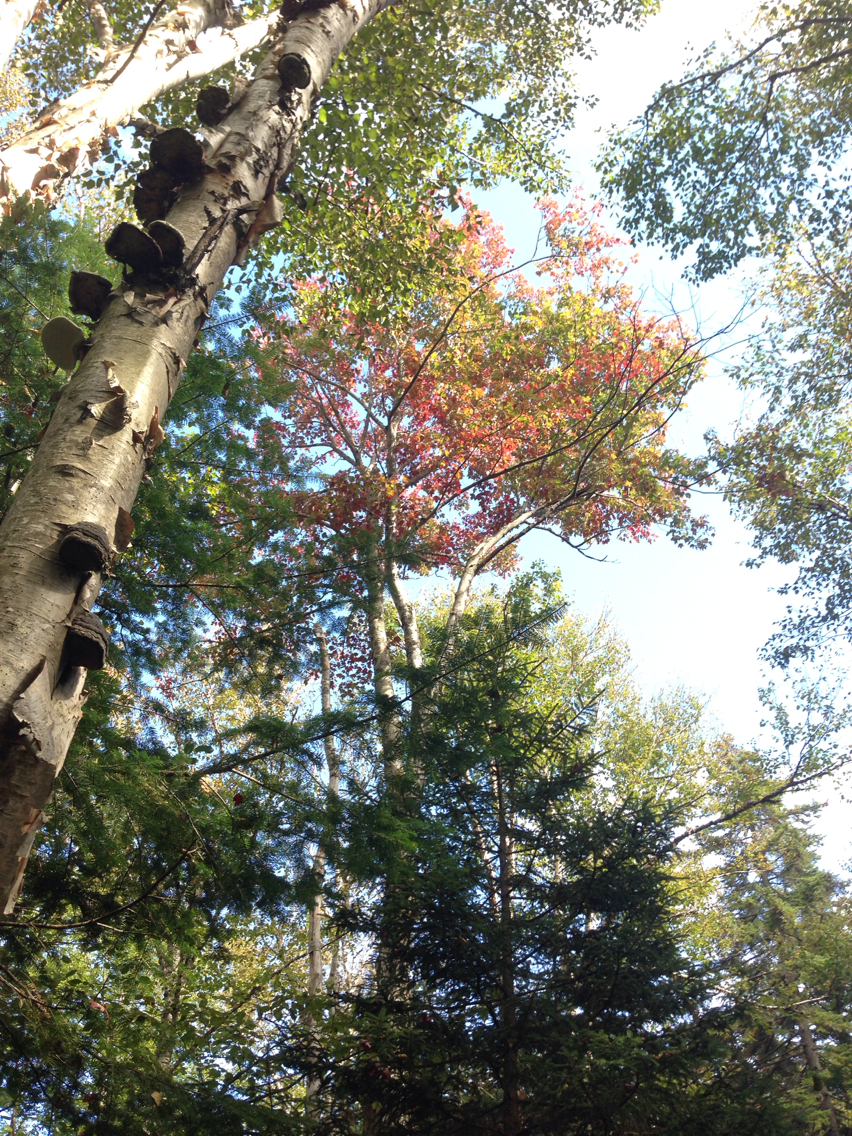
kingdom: Plantae
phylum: Tracheophyta
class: Magnoliopsida
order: Fagales
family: Betulaceae
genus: Betula
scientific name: Betula papyrifera
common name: Paper birch
